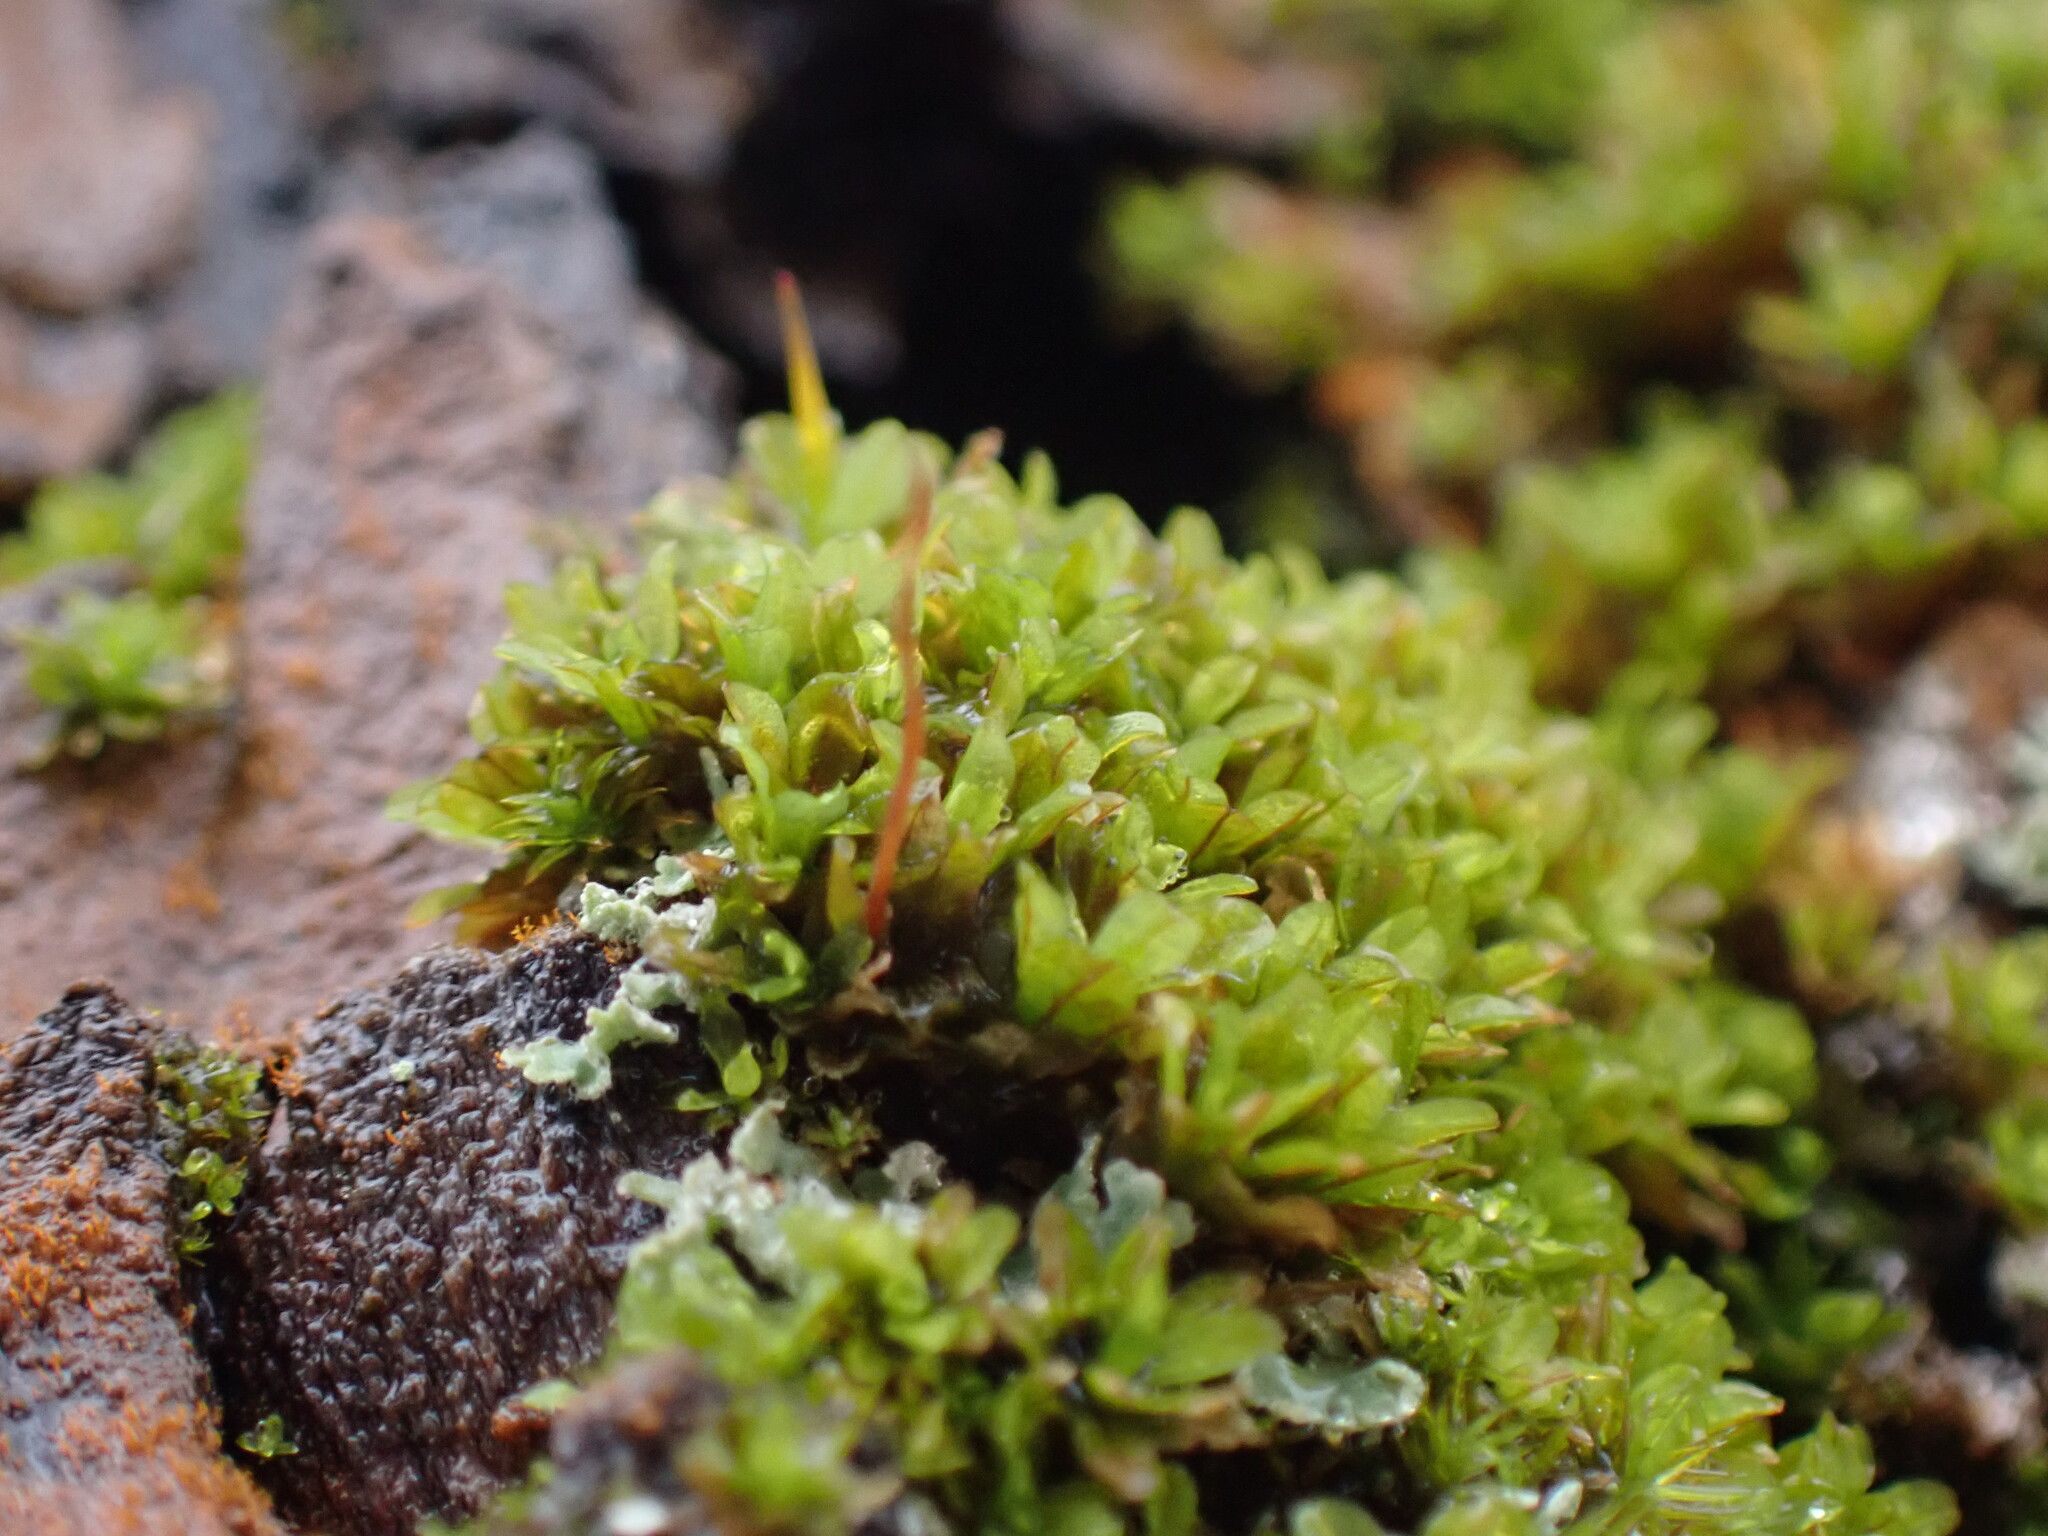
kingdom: Plantae
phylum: Bryophyta
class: Bryopsida
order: Pottiales
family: Pottiaceae
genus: Syntrichia
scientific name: Syntrichia latifolia
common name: Water screw-moss
